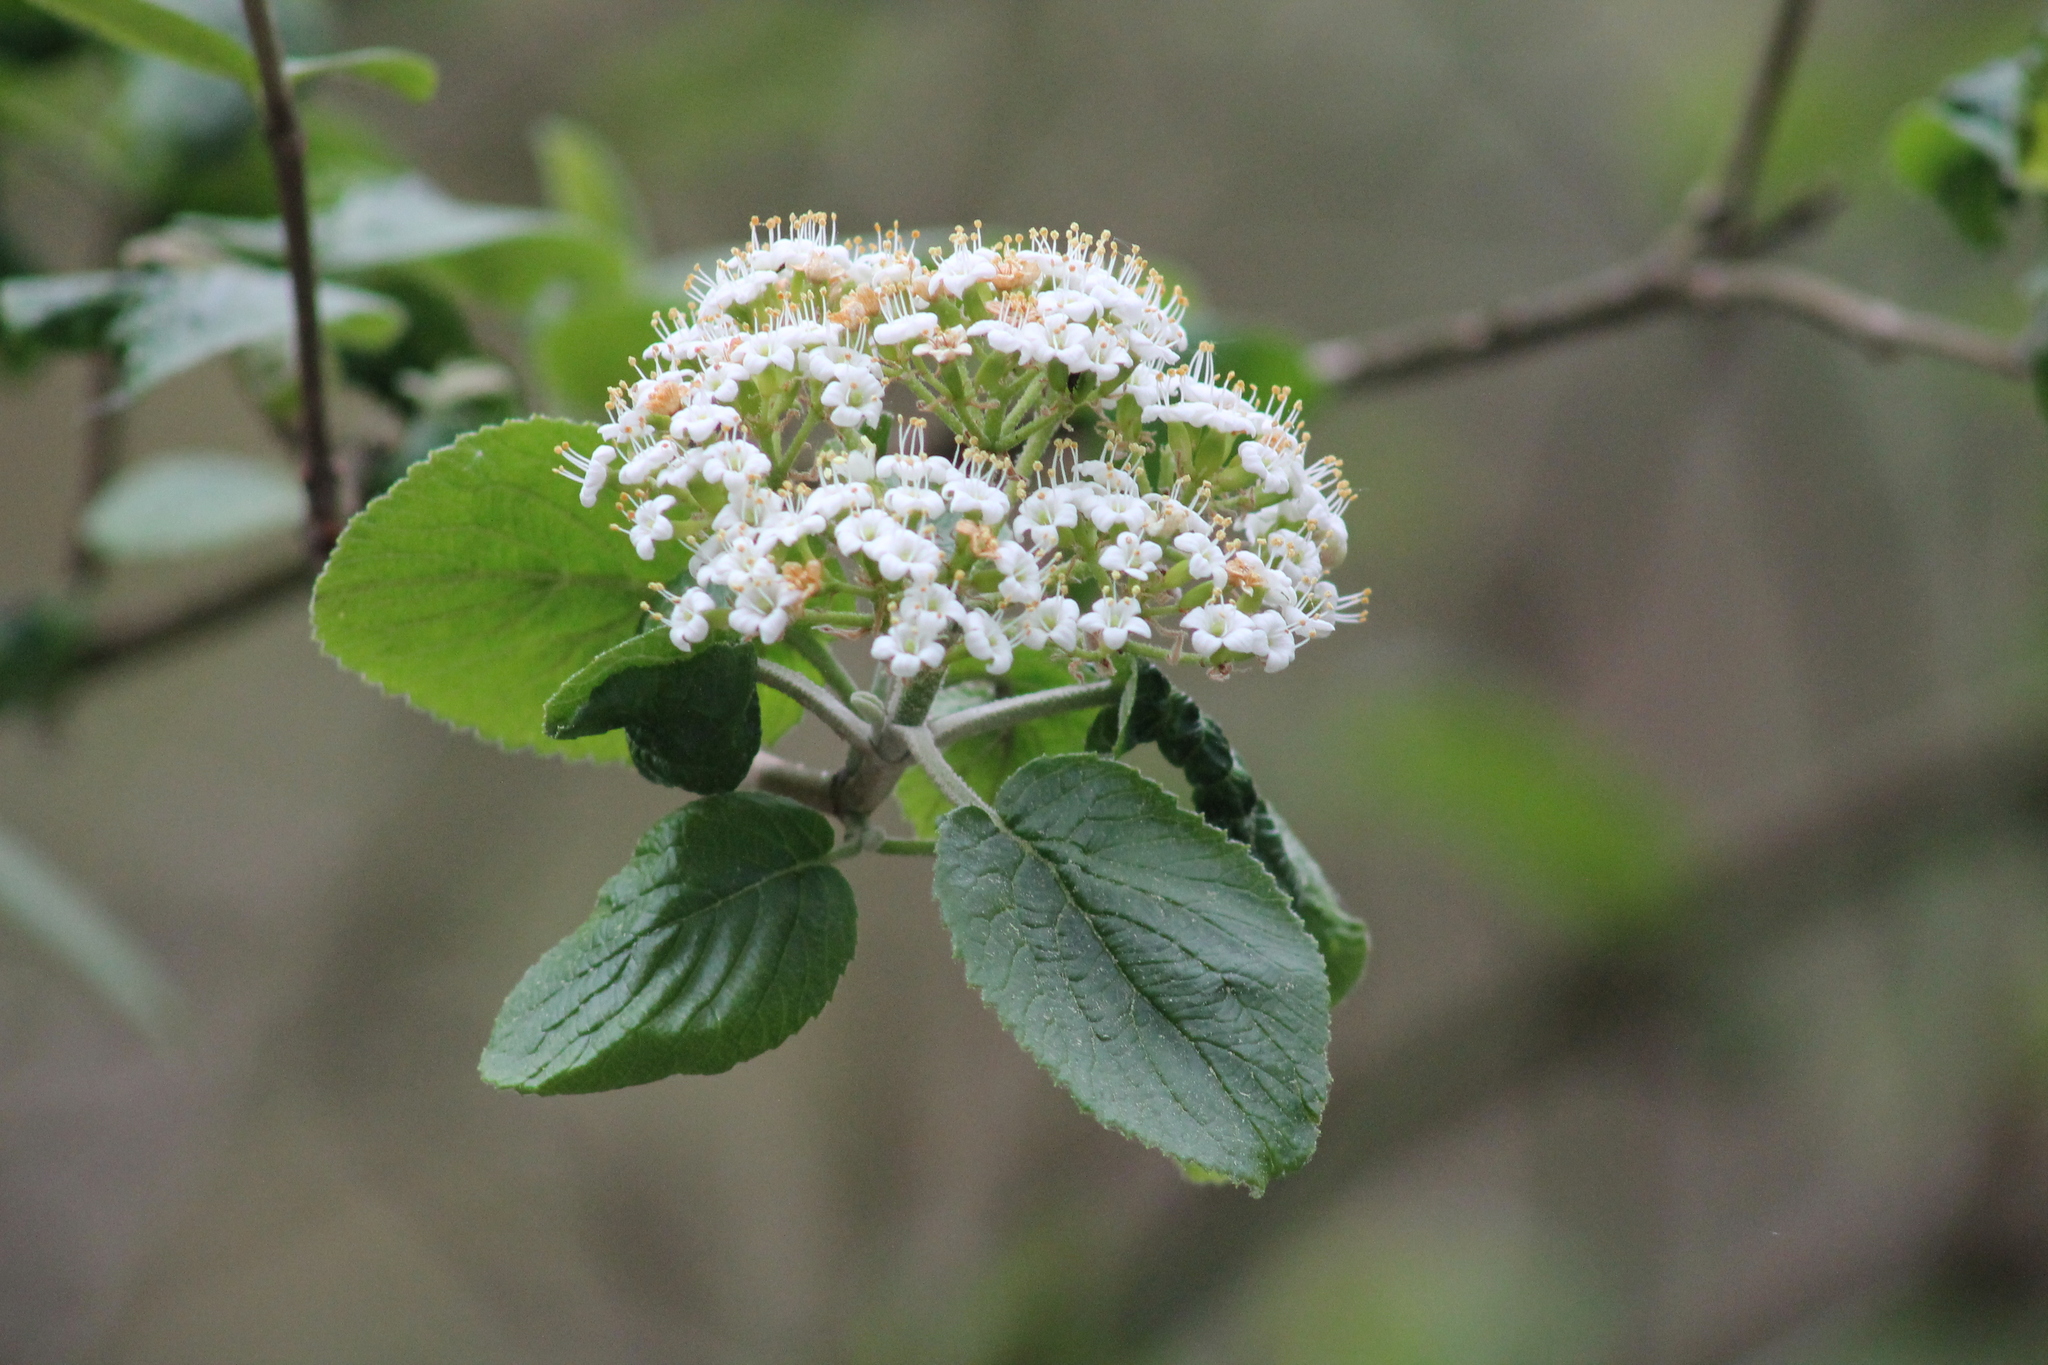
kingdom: Plantae
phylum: Tracheophyta
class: Magnoliopsida
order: Dipsacales
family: Viburnaceae
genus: Viburnum
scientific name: Viburnum lantana
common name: Wayfaring tree
